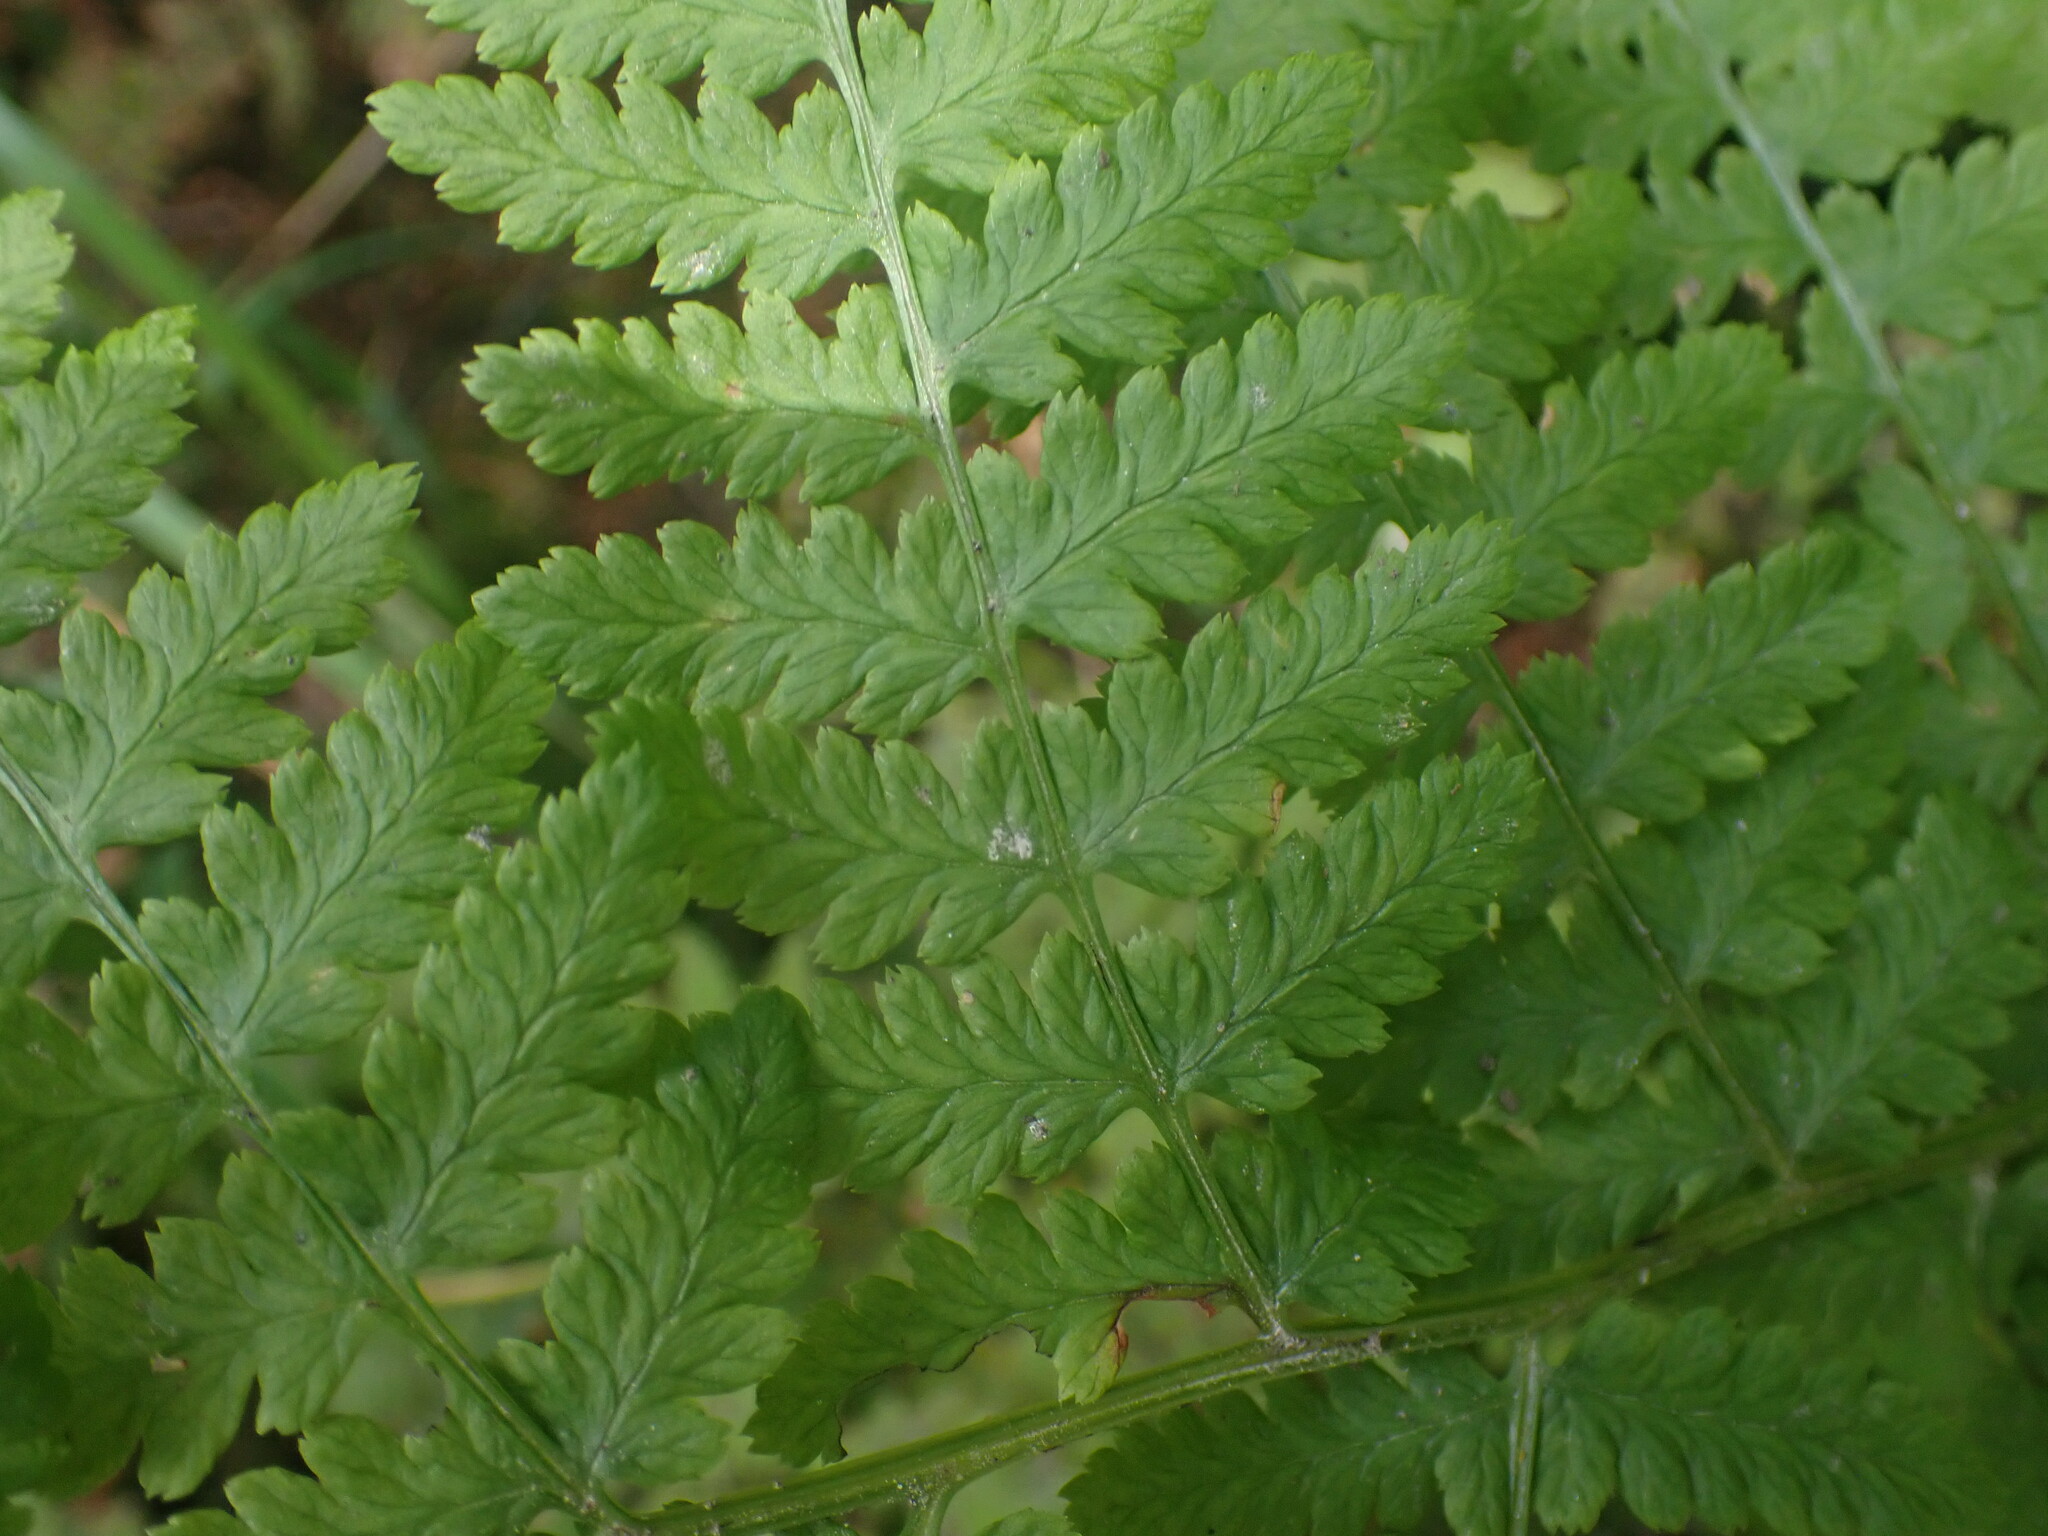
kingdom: Plantae
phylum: Tracheophyta
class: Polypodiopsida
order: Polypodiales
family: Athyriaceae
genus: Athyrium
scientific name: Athyrium filix-femina
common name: Lady fern
